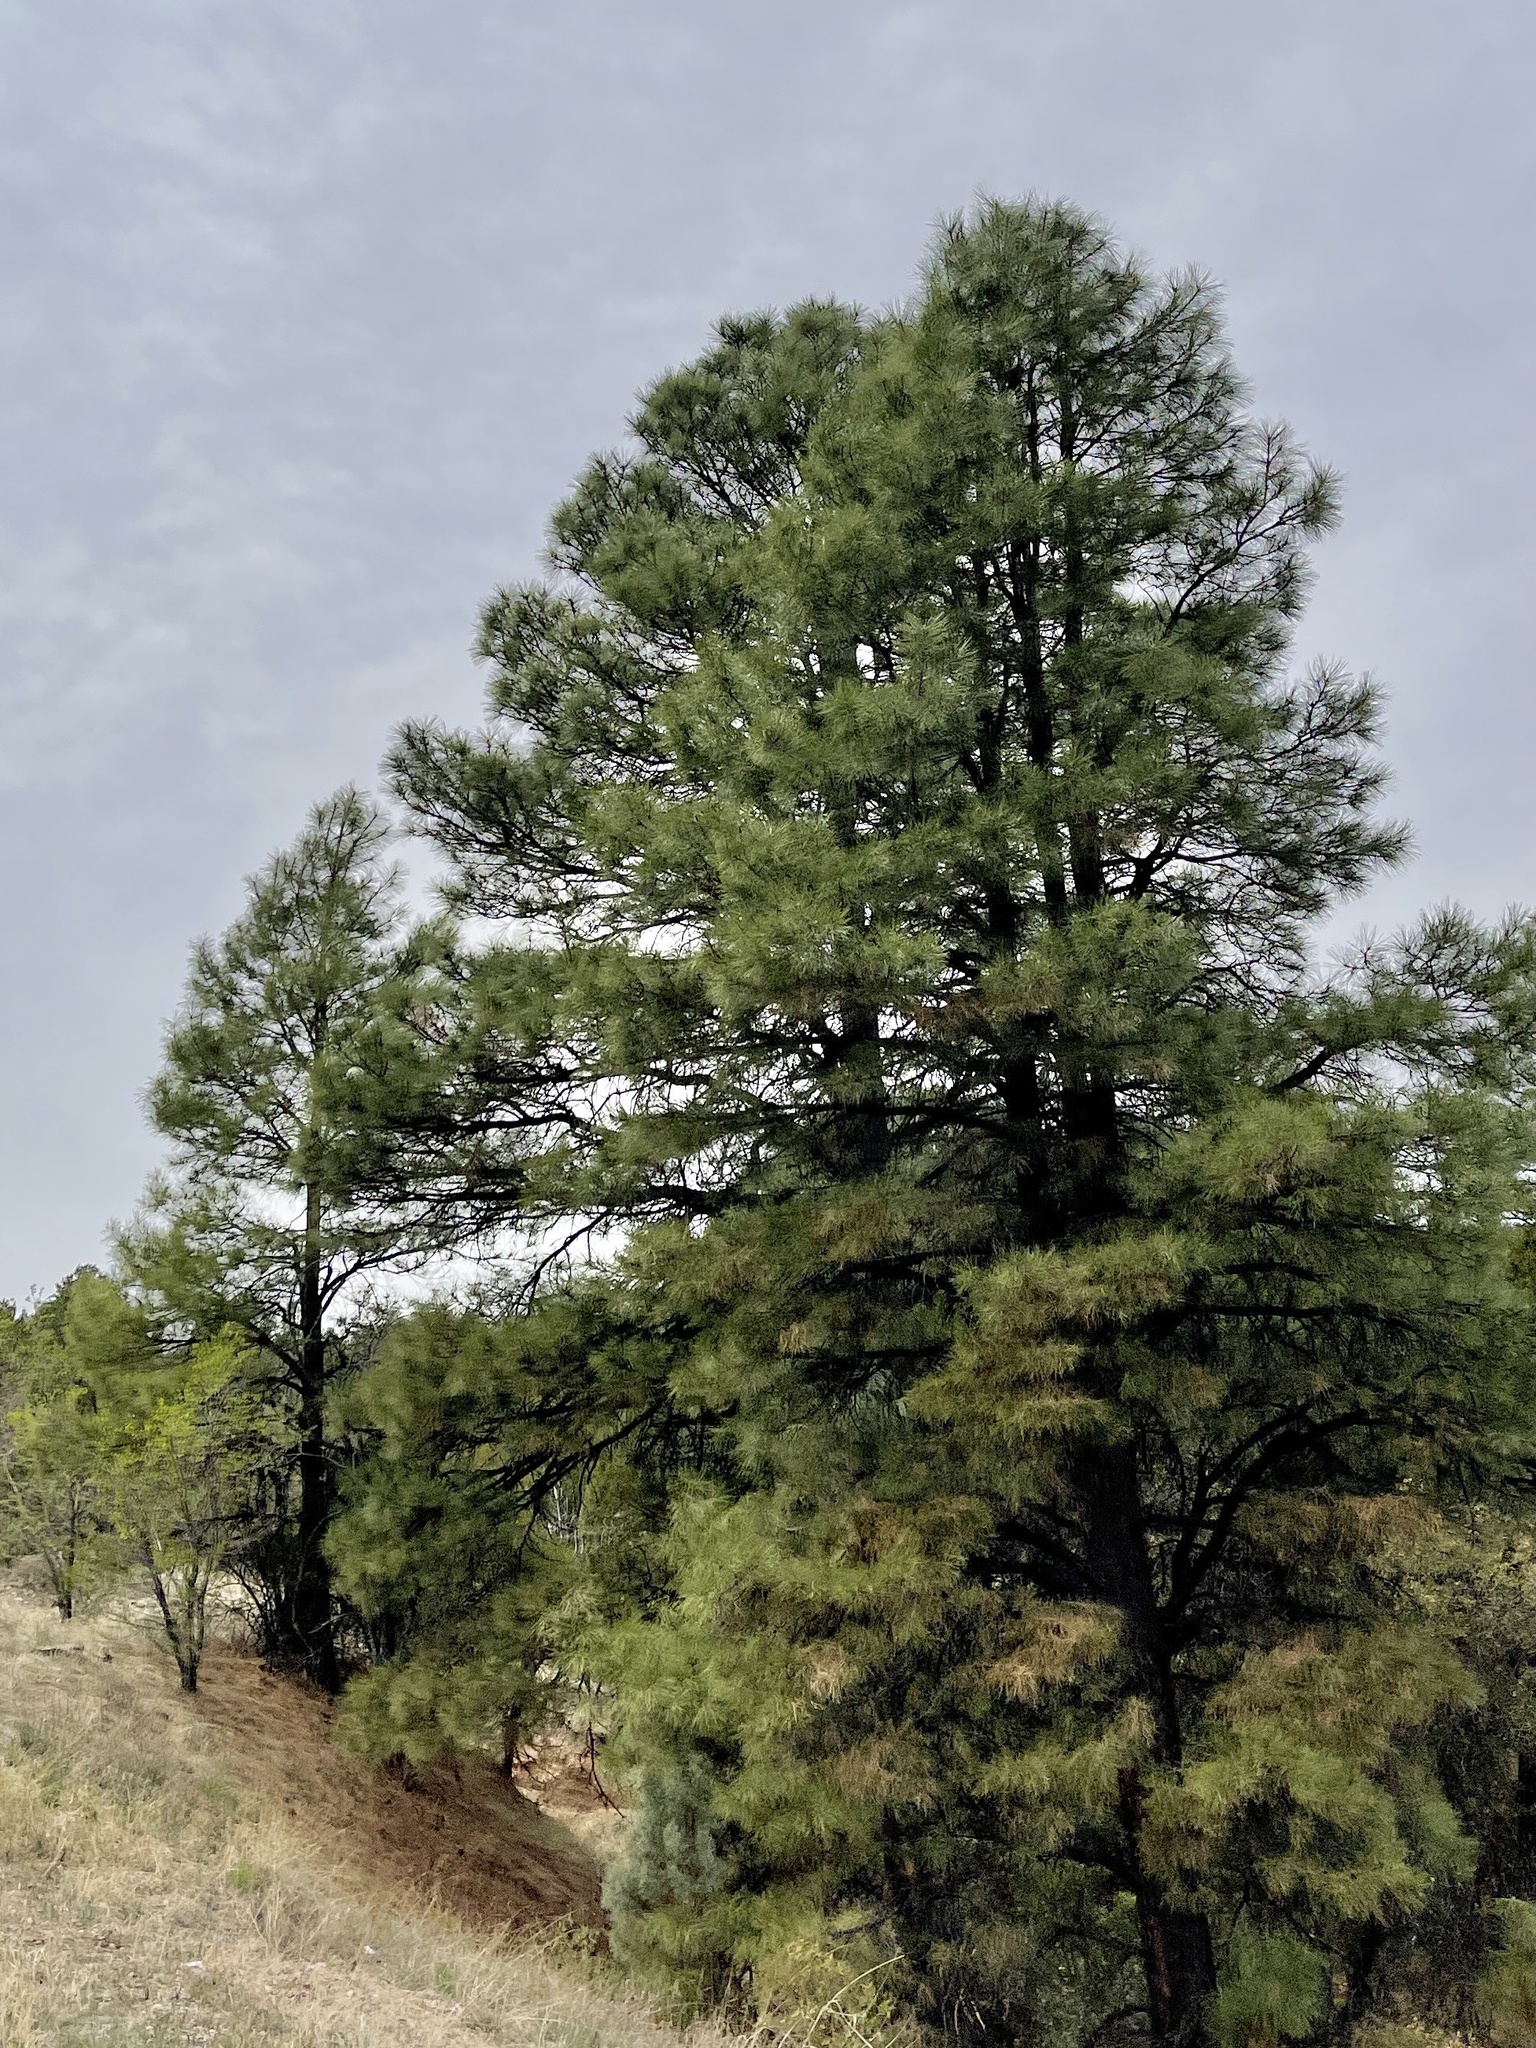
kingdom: Plantae
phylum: Tracheophyta
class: Pinopsida
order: Pinales
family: Pinaceae
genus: Pinus
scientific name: Pinus ponderosa
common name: Western yellow-pine
